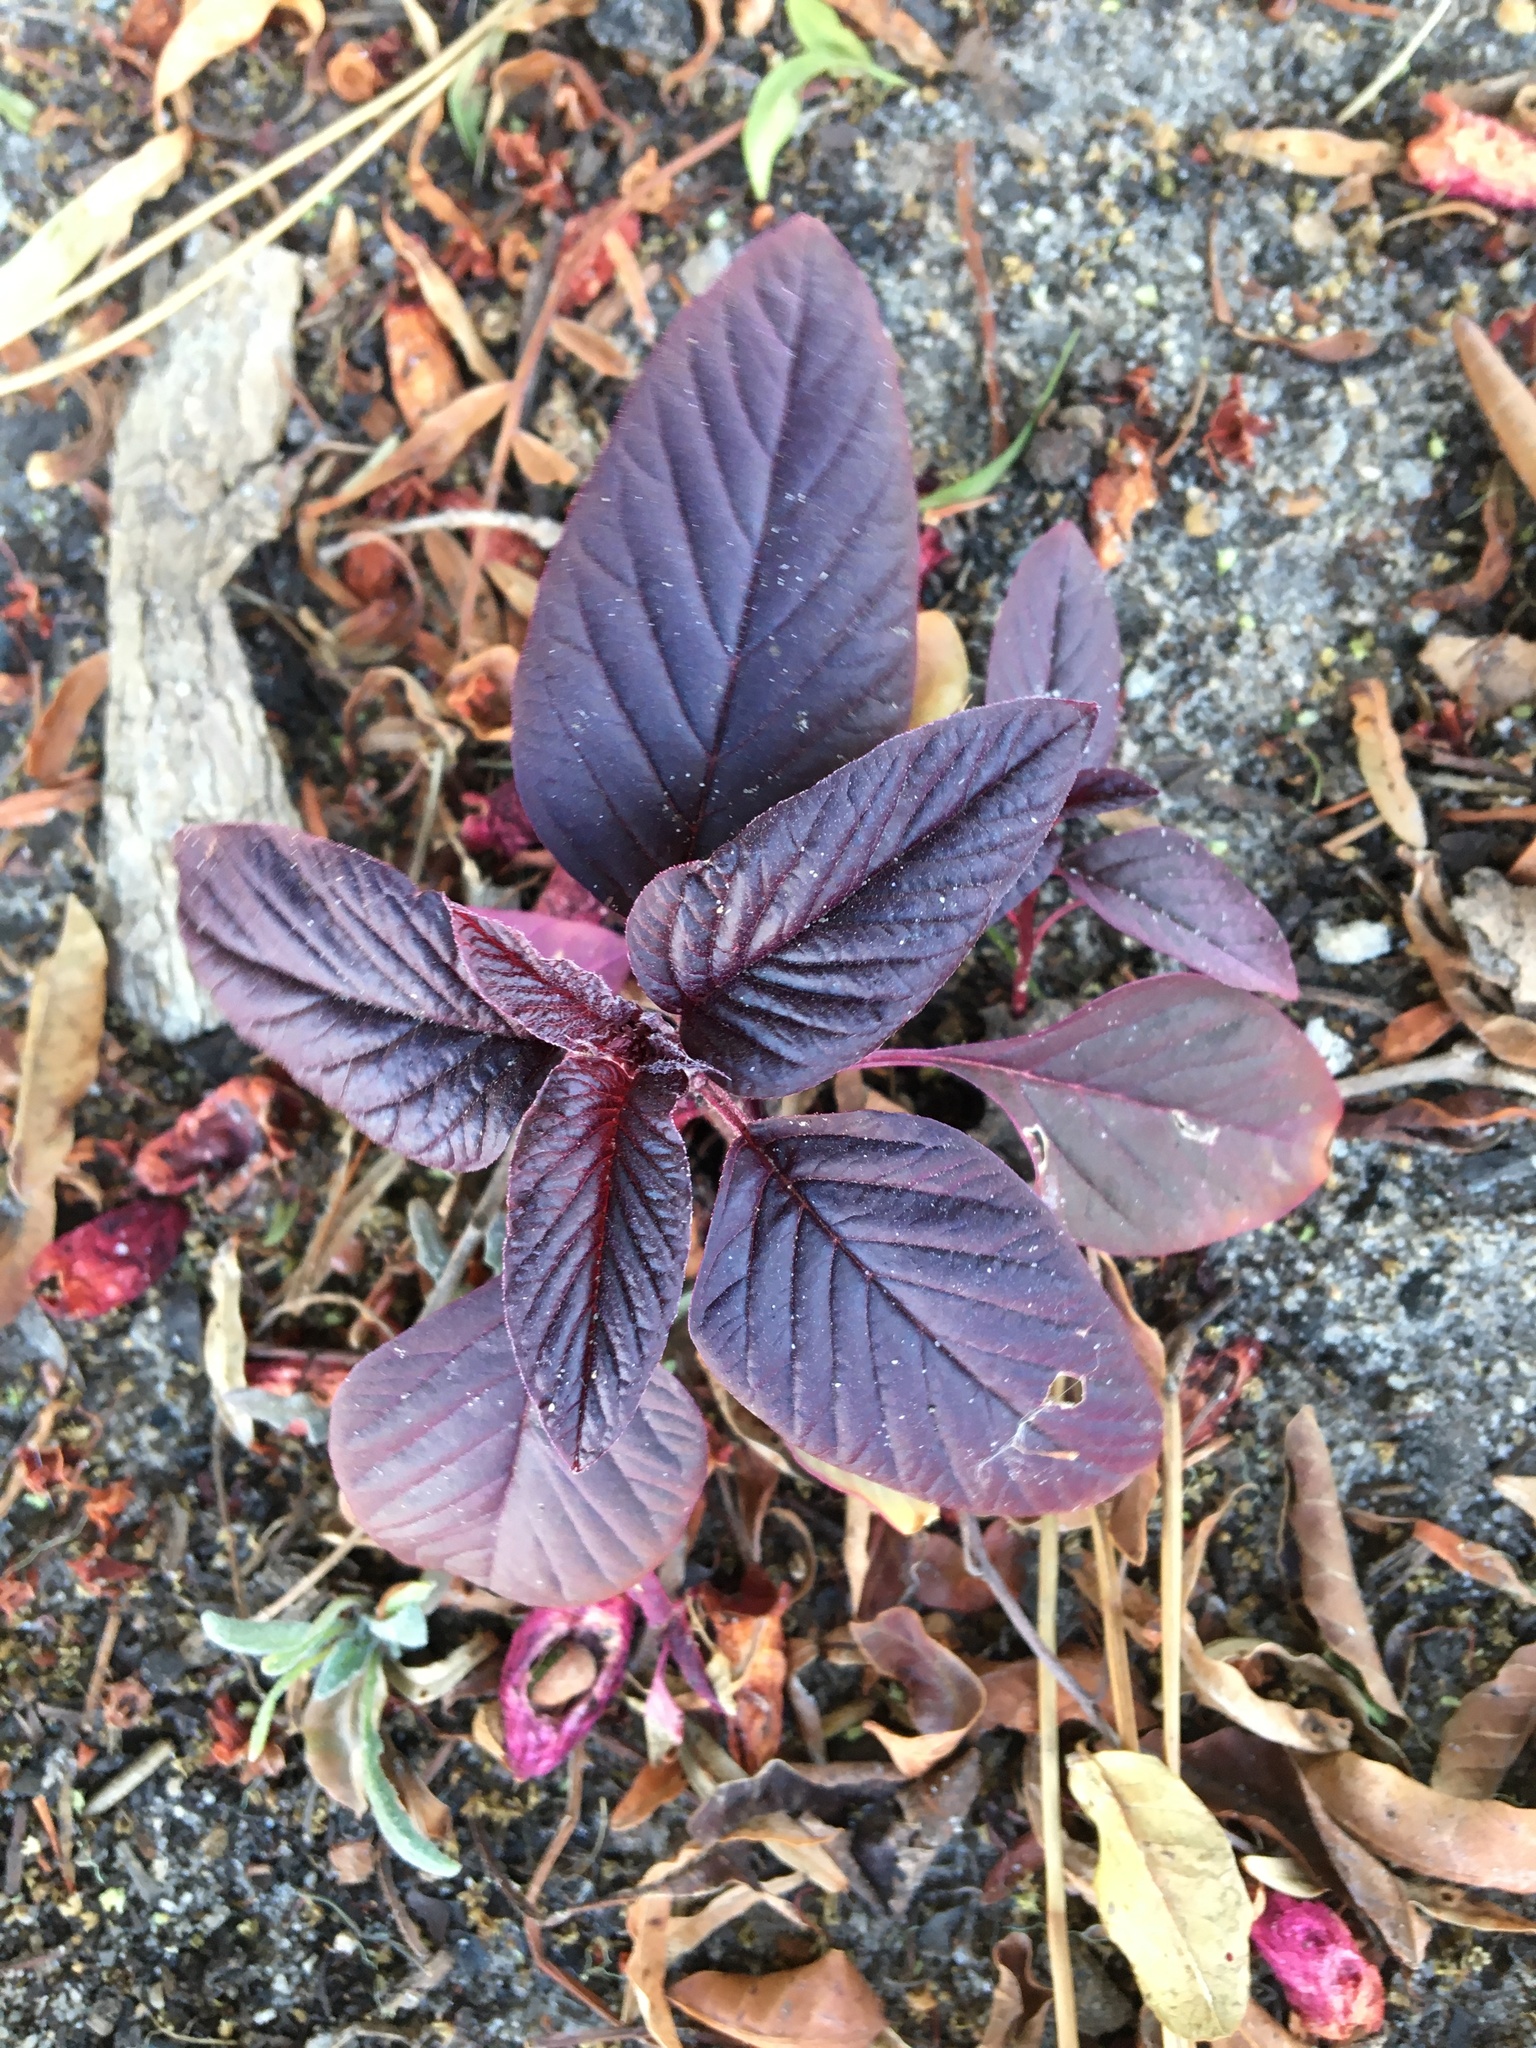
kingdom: Plantae
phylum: Tracheophyta
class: Magnoliopsida
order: Caryophyllales
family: Amaranthaceae
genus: Amaranthus
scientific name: Amaranthus cruentus
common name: Purple amaranth
